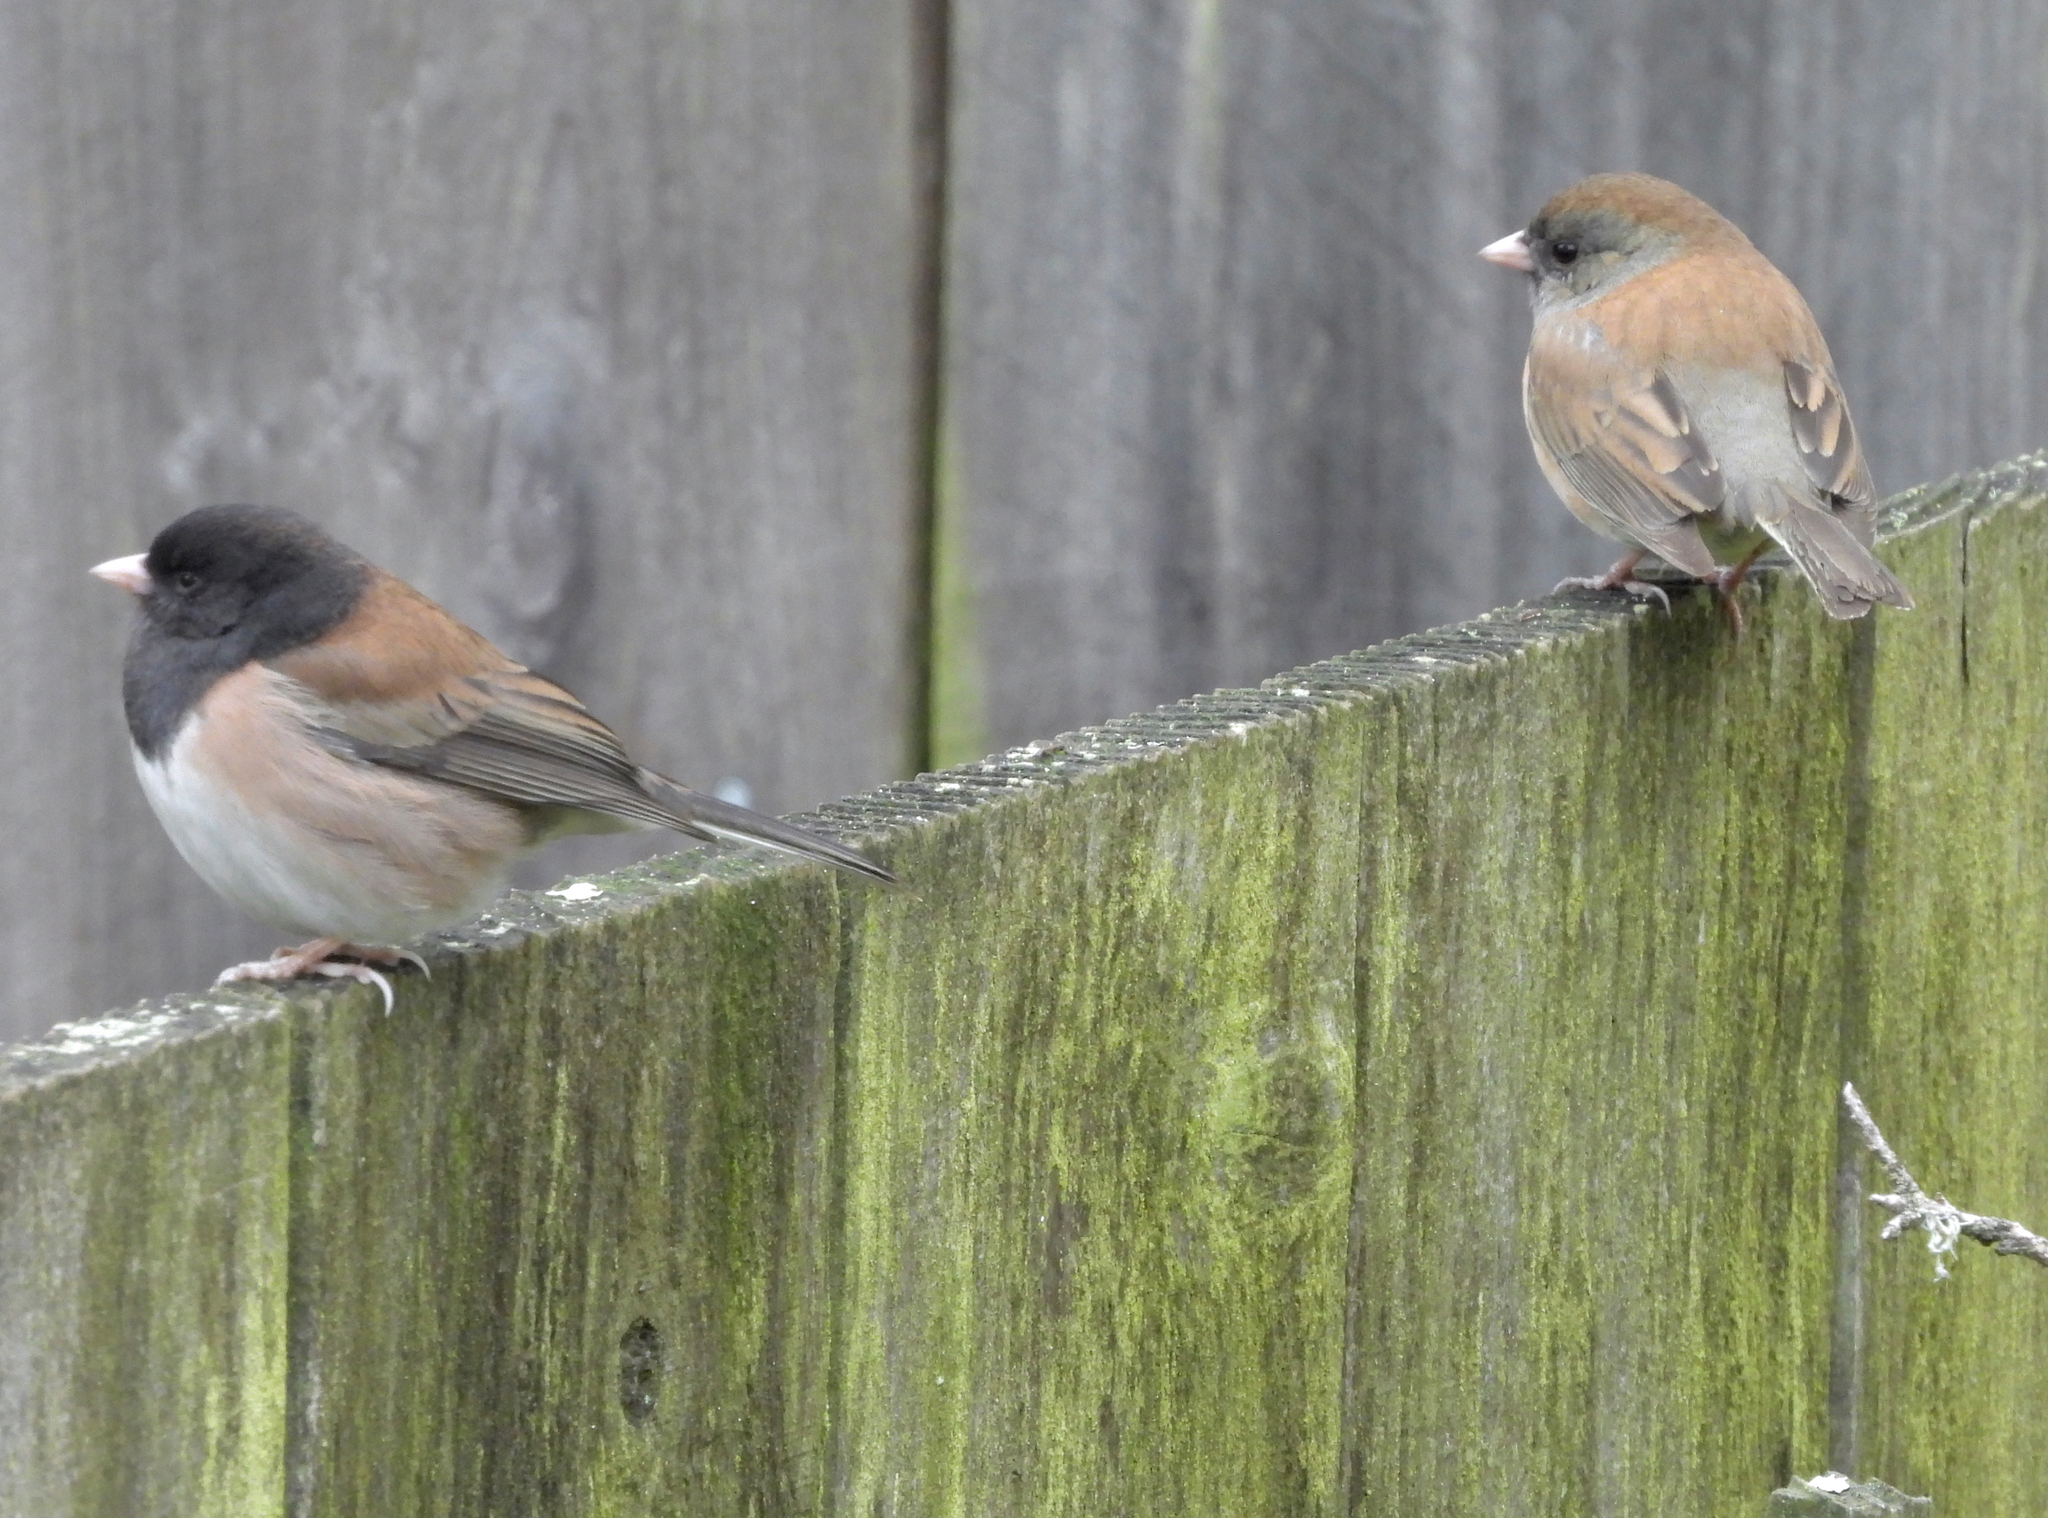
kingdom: Animalia
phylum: Chordata
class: Aves
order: Passeriformes
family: Passerellidae
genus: Junco
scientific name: Junco hyemalis
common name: Dark-eyed junco
